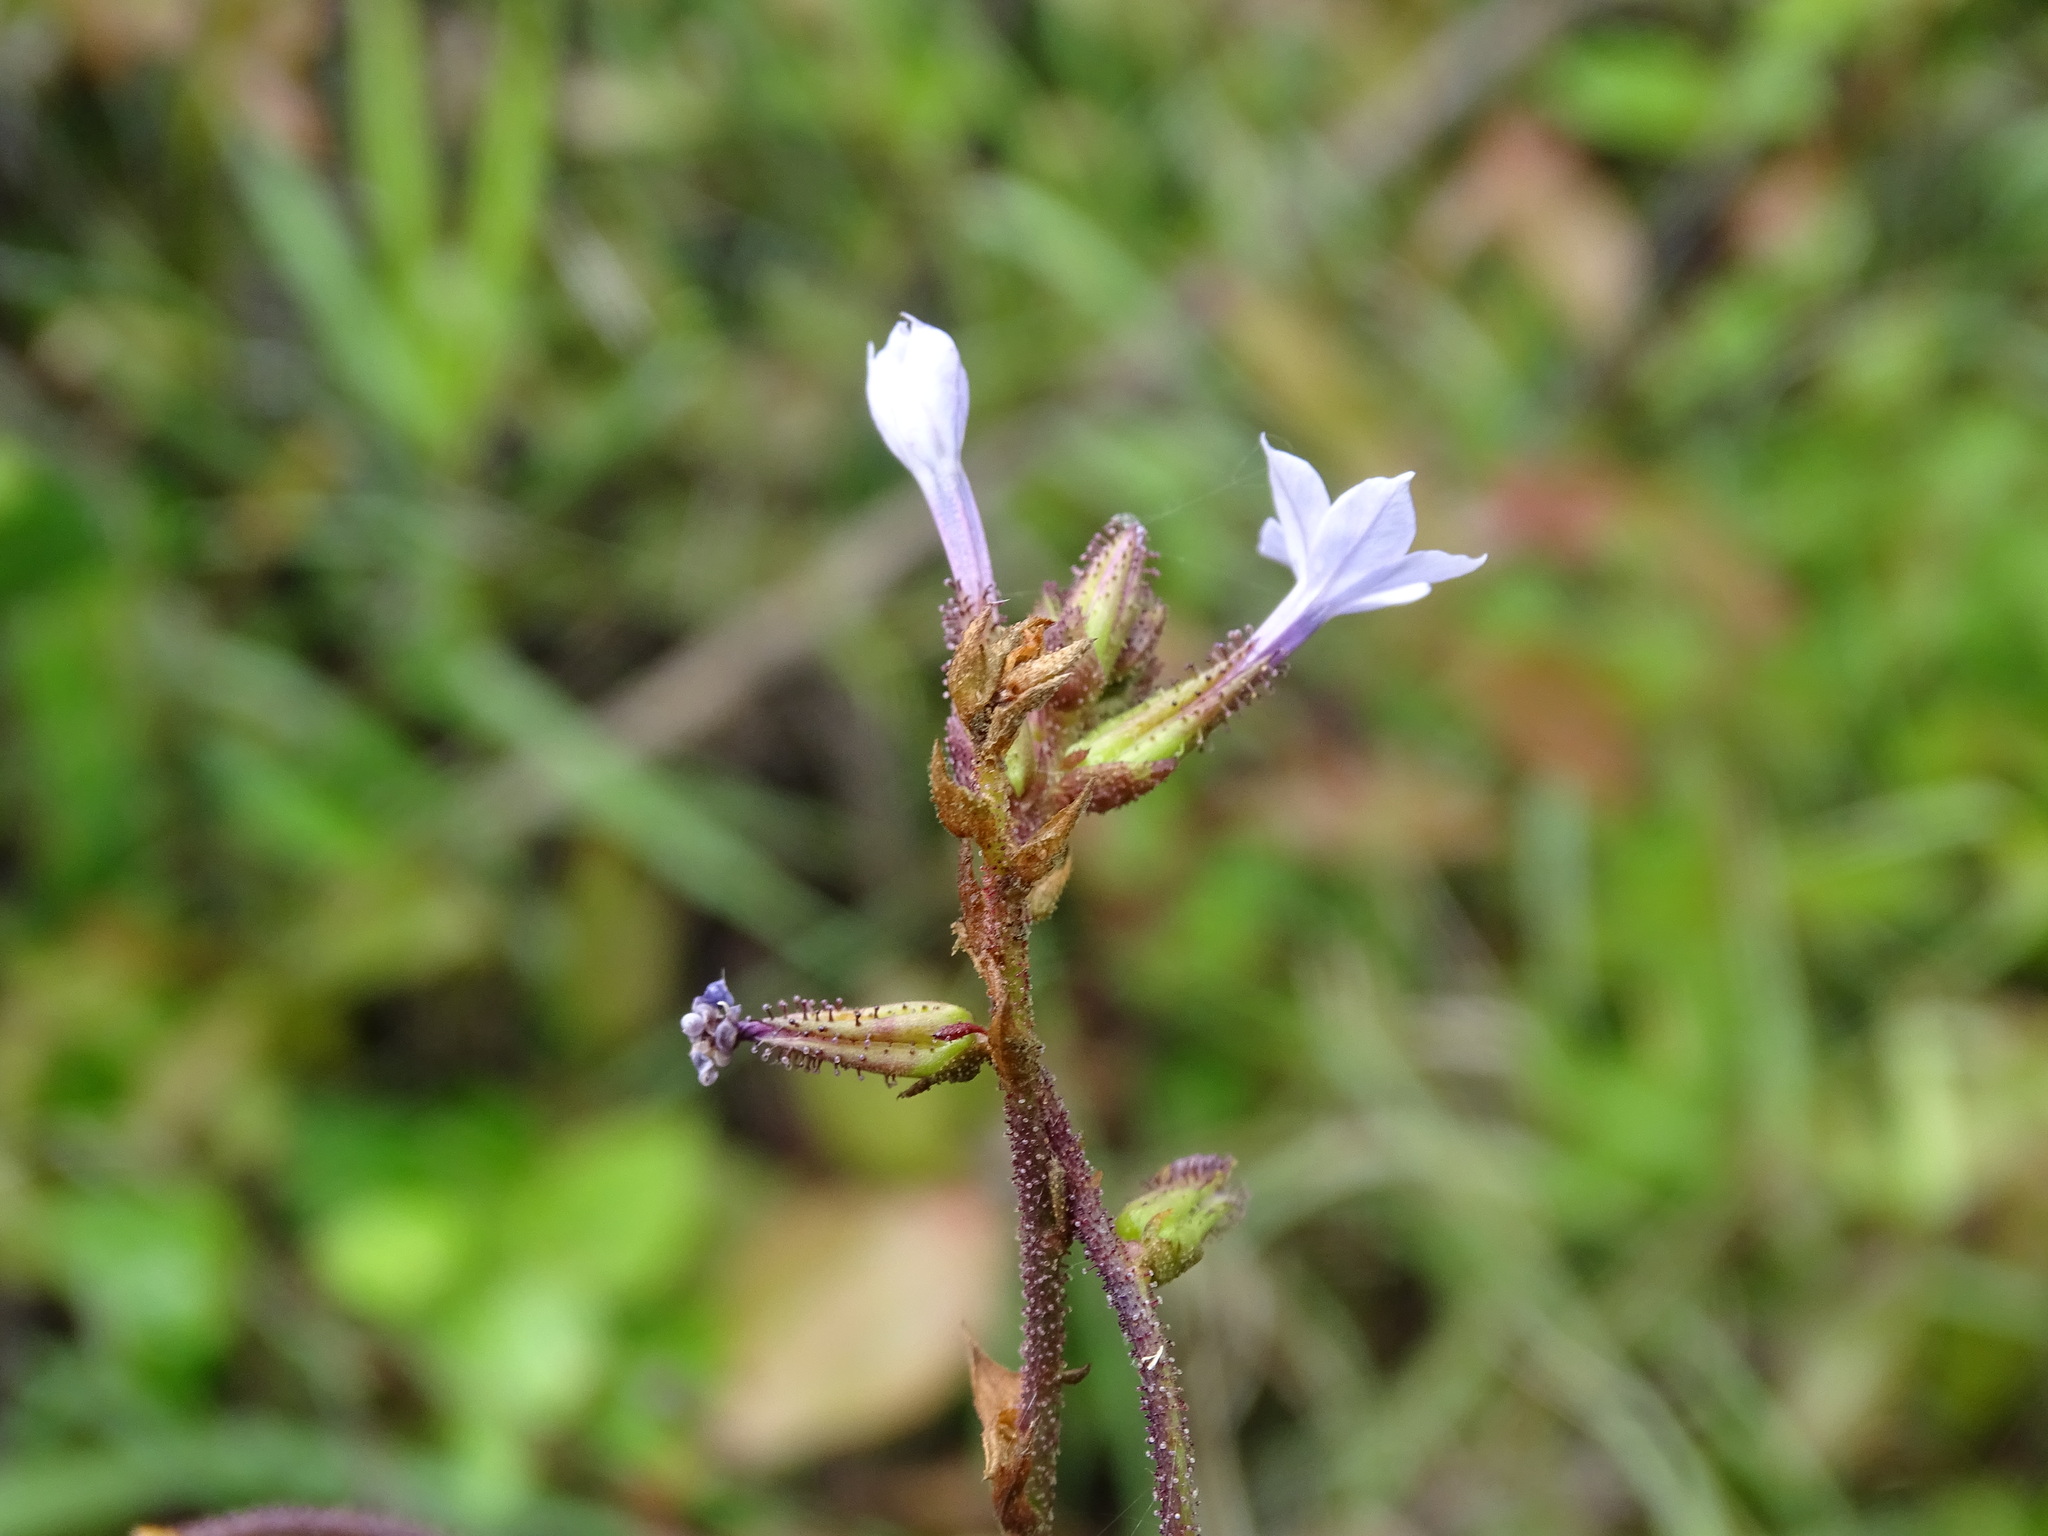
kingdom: Plantae
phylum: Tracheophyta
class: Magnoliopsida
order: Caryophyllales
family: Plumbaginaceae
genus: Plumbago
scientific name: Plumbago pulchella
